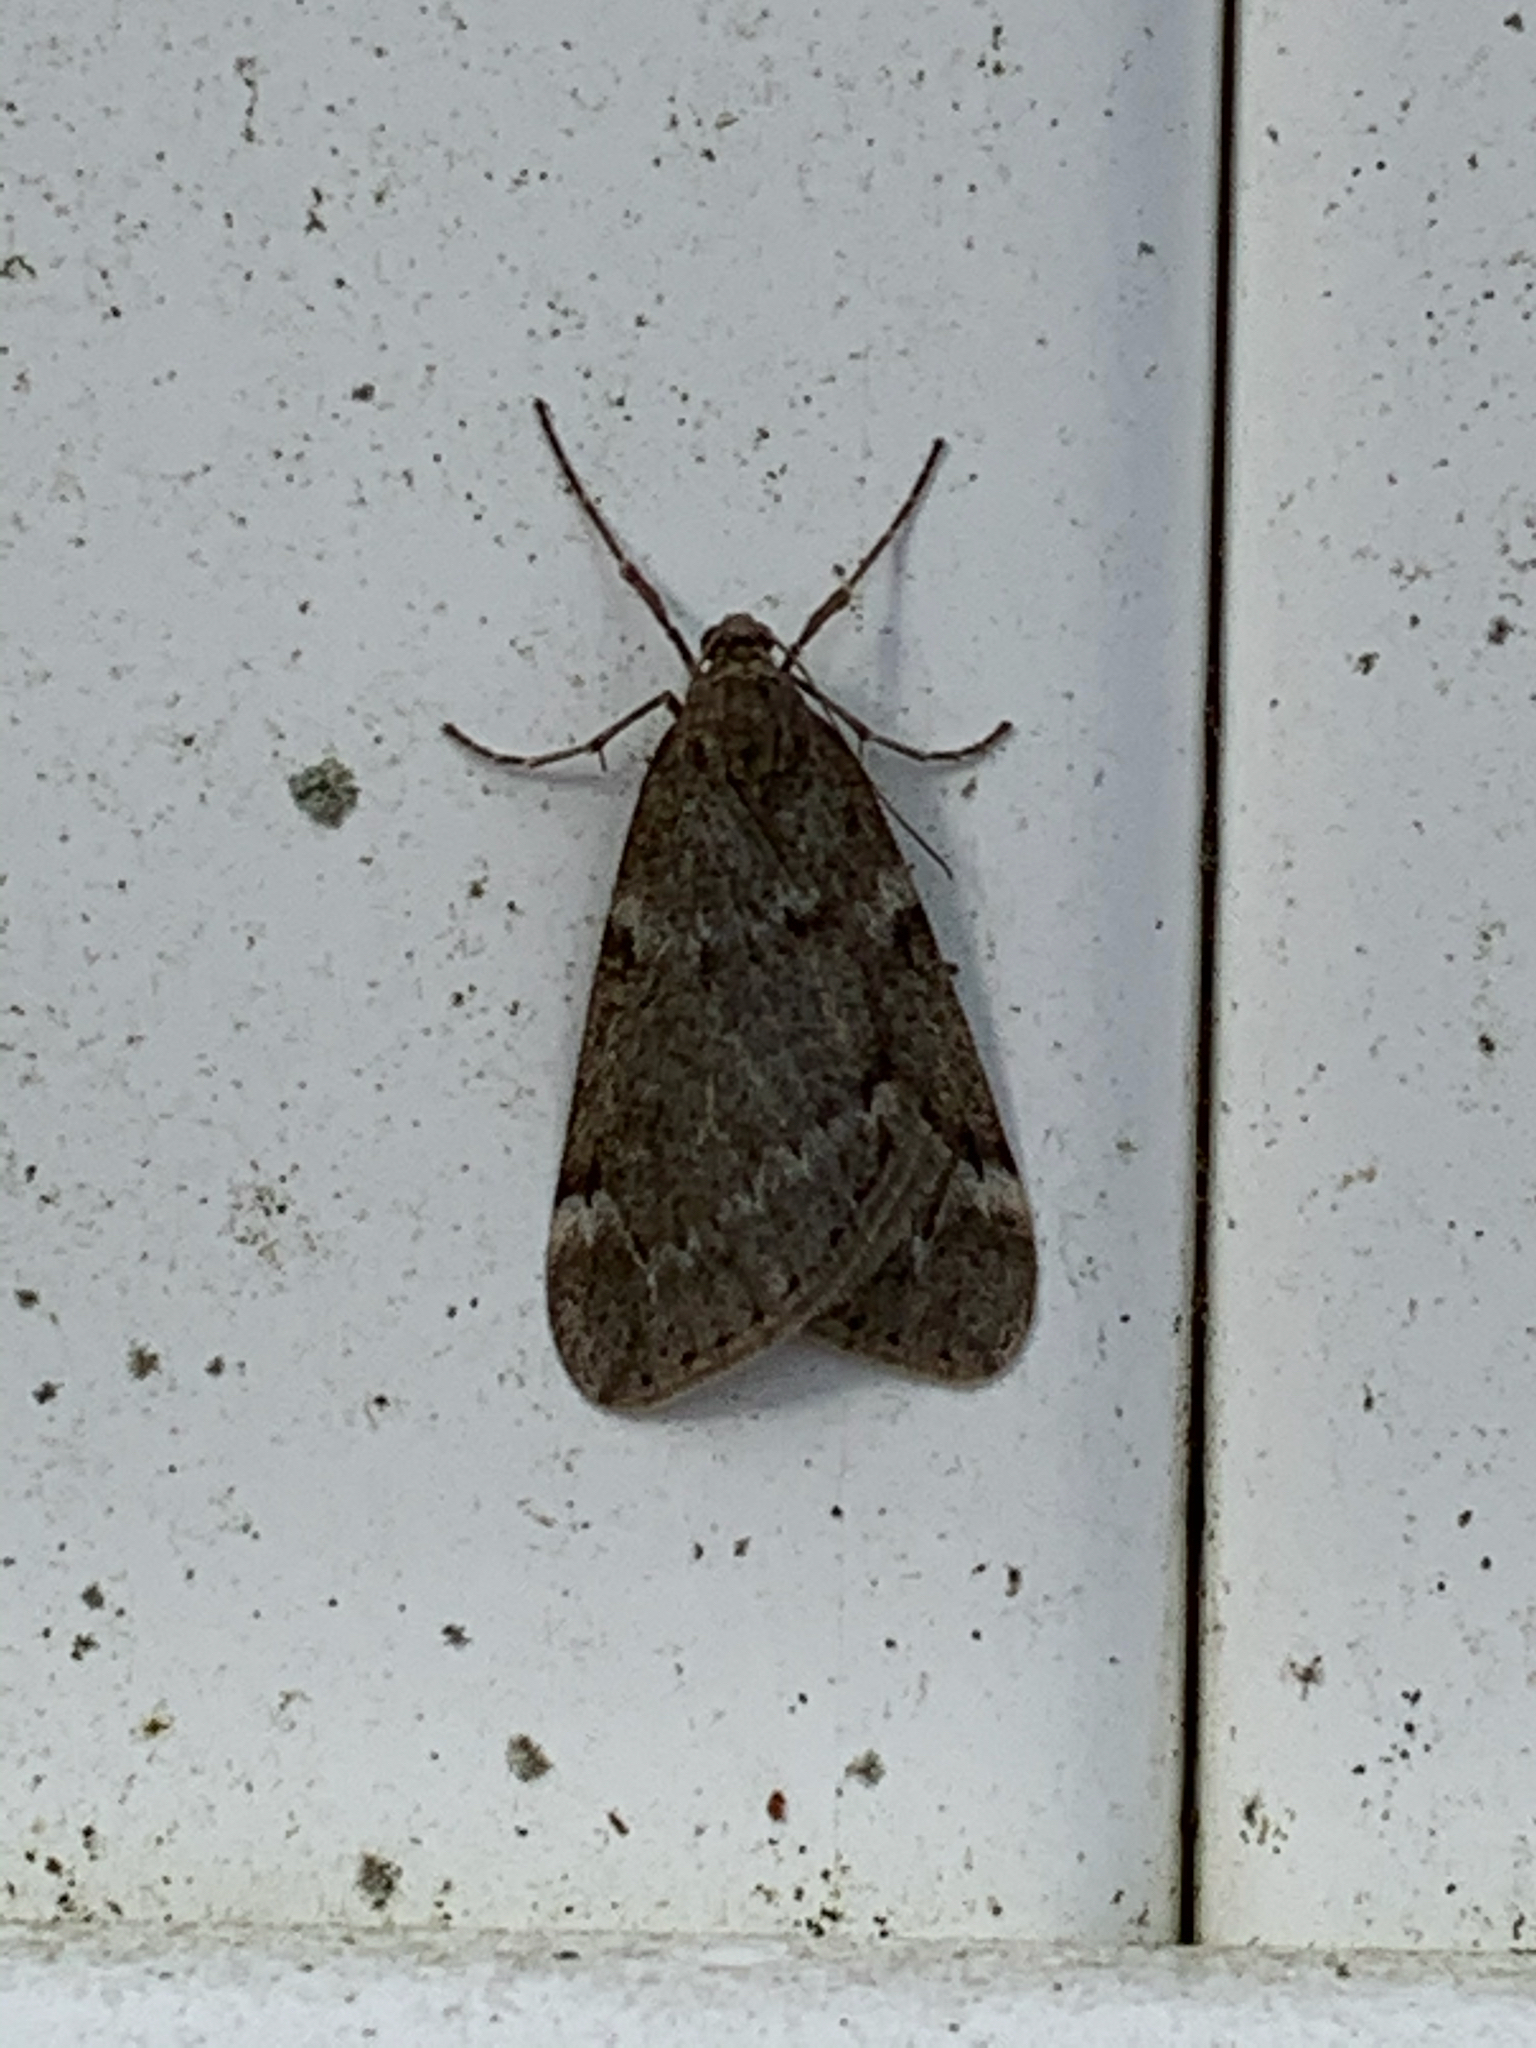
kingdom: Animalia
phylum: Arthropoda
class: Insecta
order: Lepidoptera
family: Geometridae
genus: Alsophila
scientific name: Alsophila pometaria
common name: Fall cankerworm
